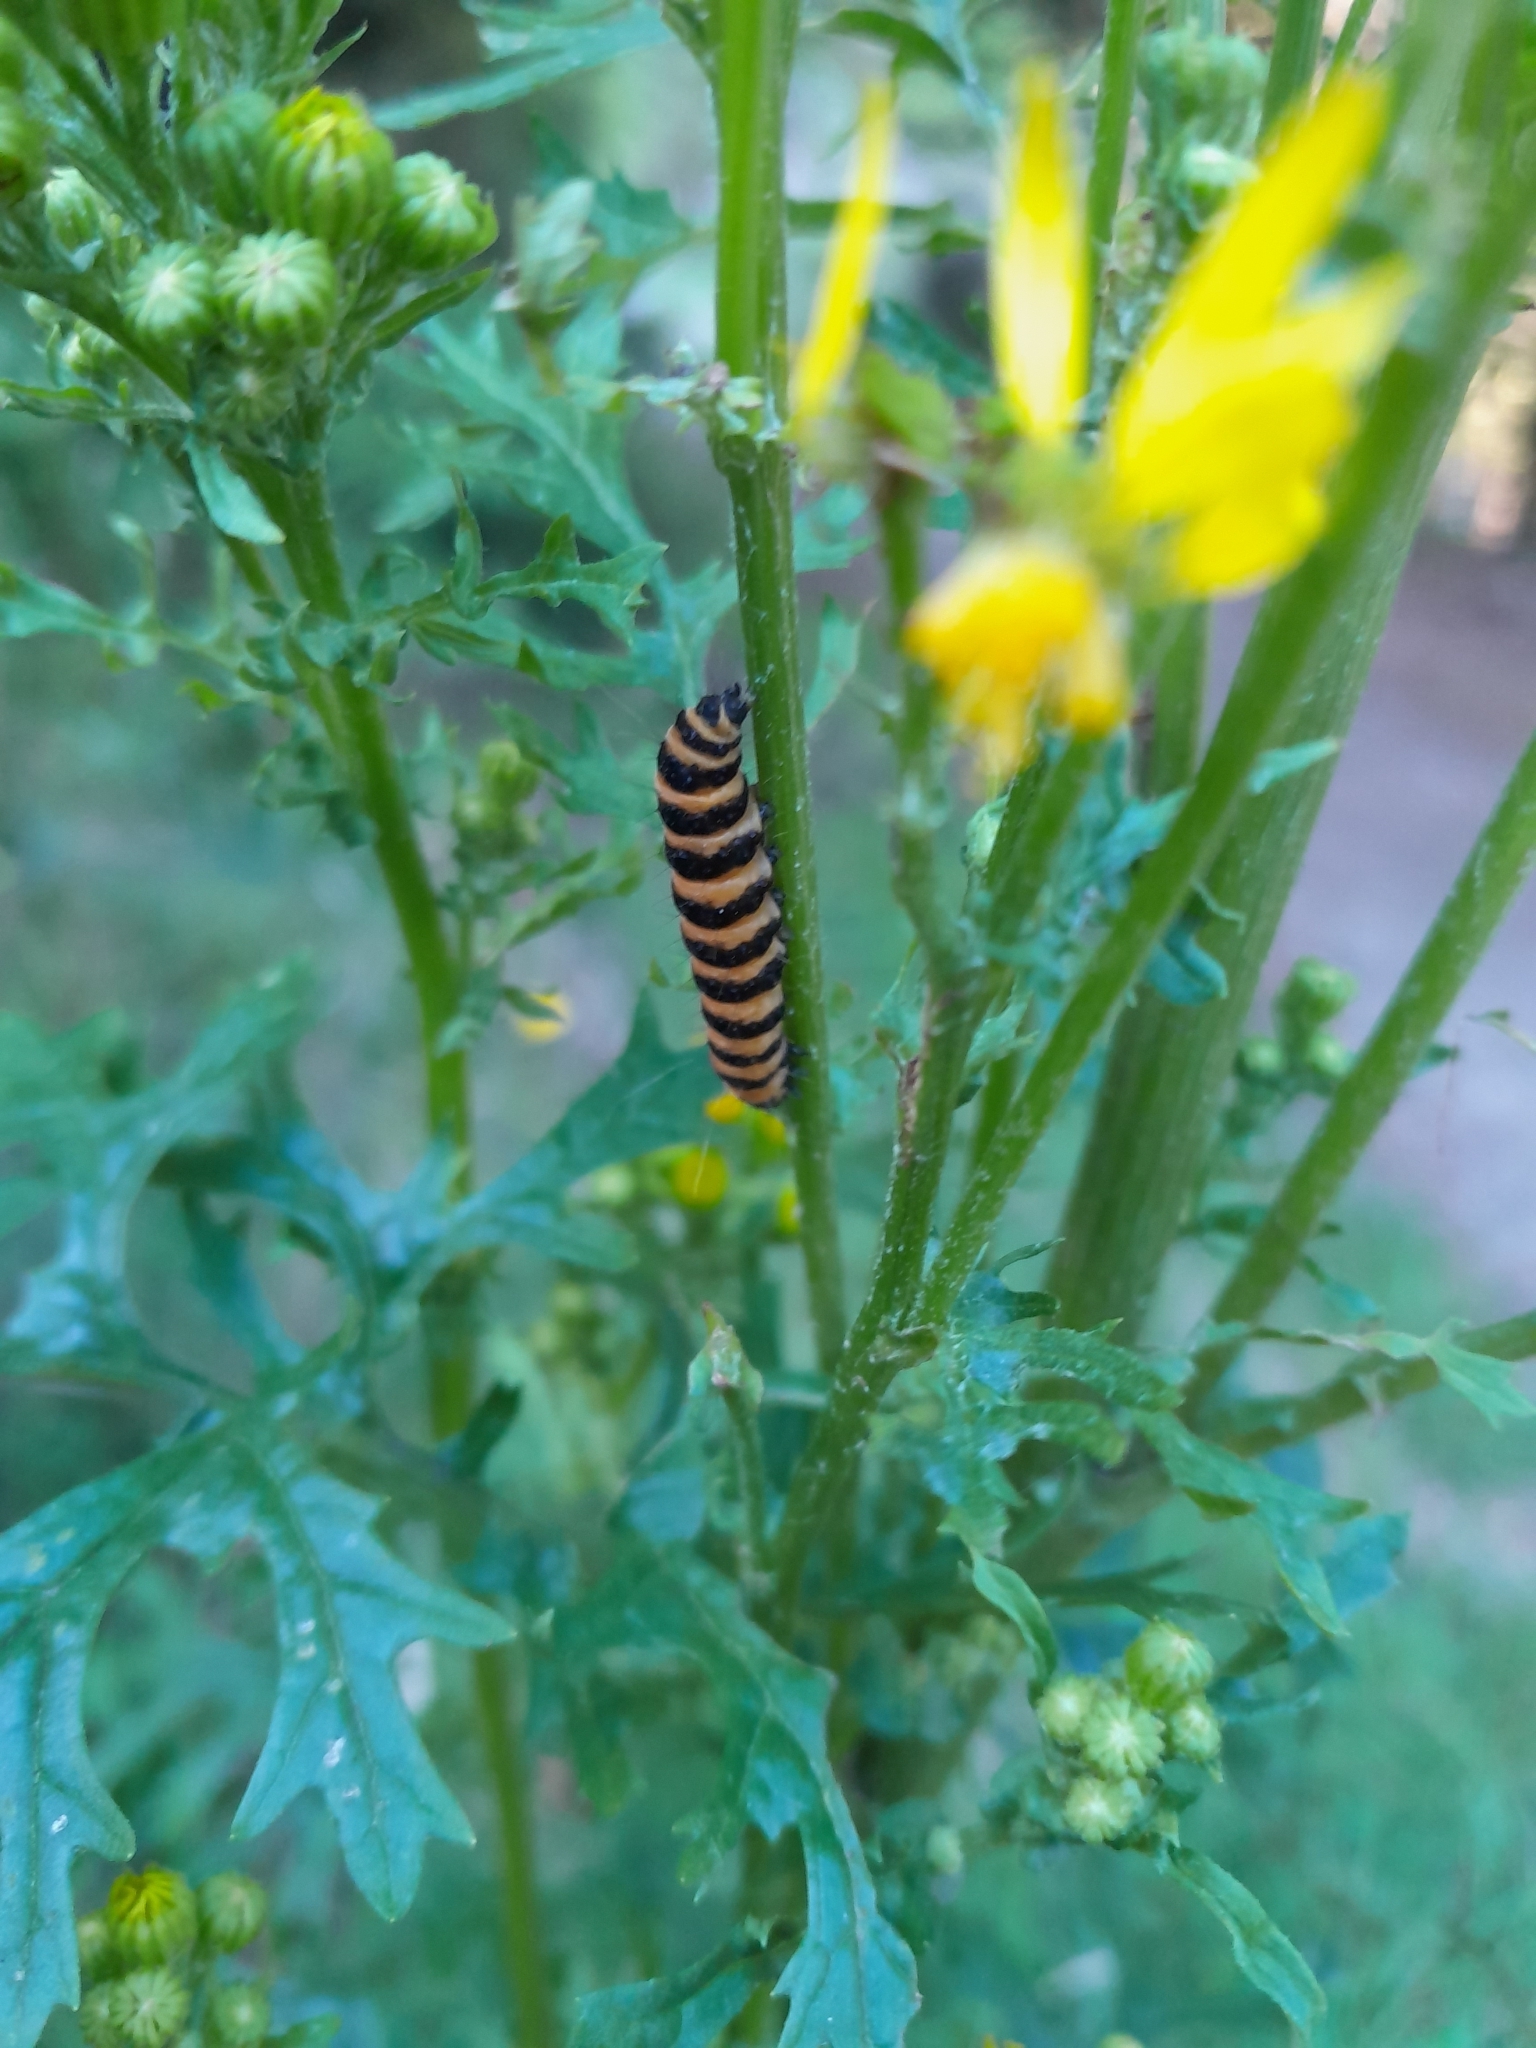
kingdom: Animalia
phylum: Arthropoda
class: Insecta
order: Lepidoptera
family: Erebidae
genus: Tyria
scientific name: Tyria jacobaeae
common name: Cinnabar
